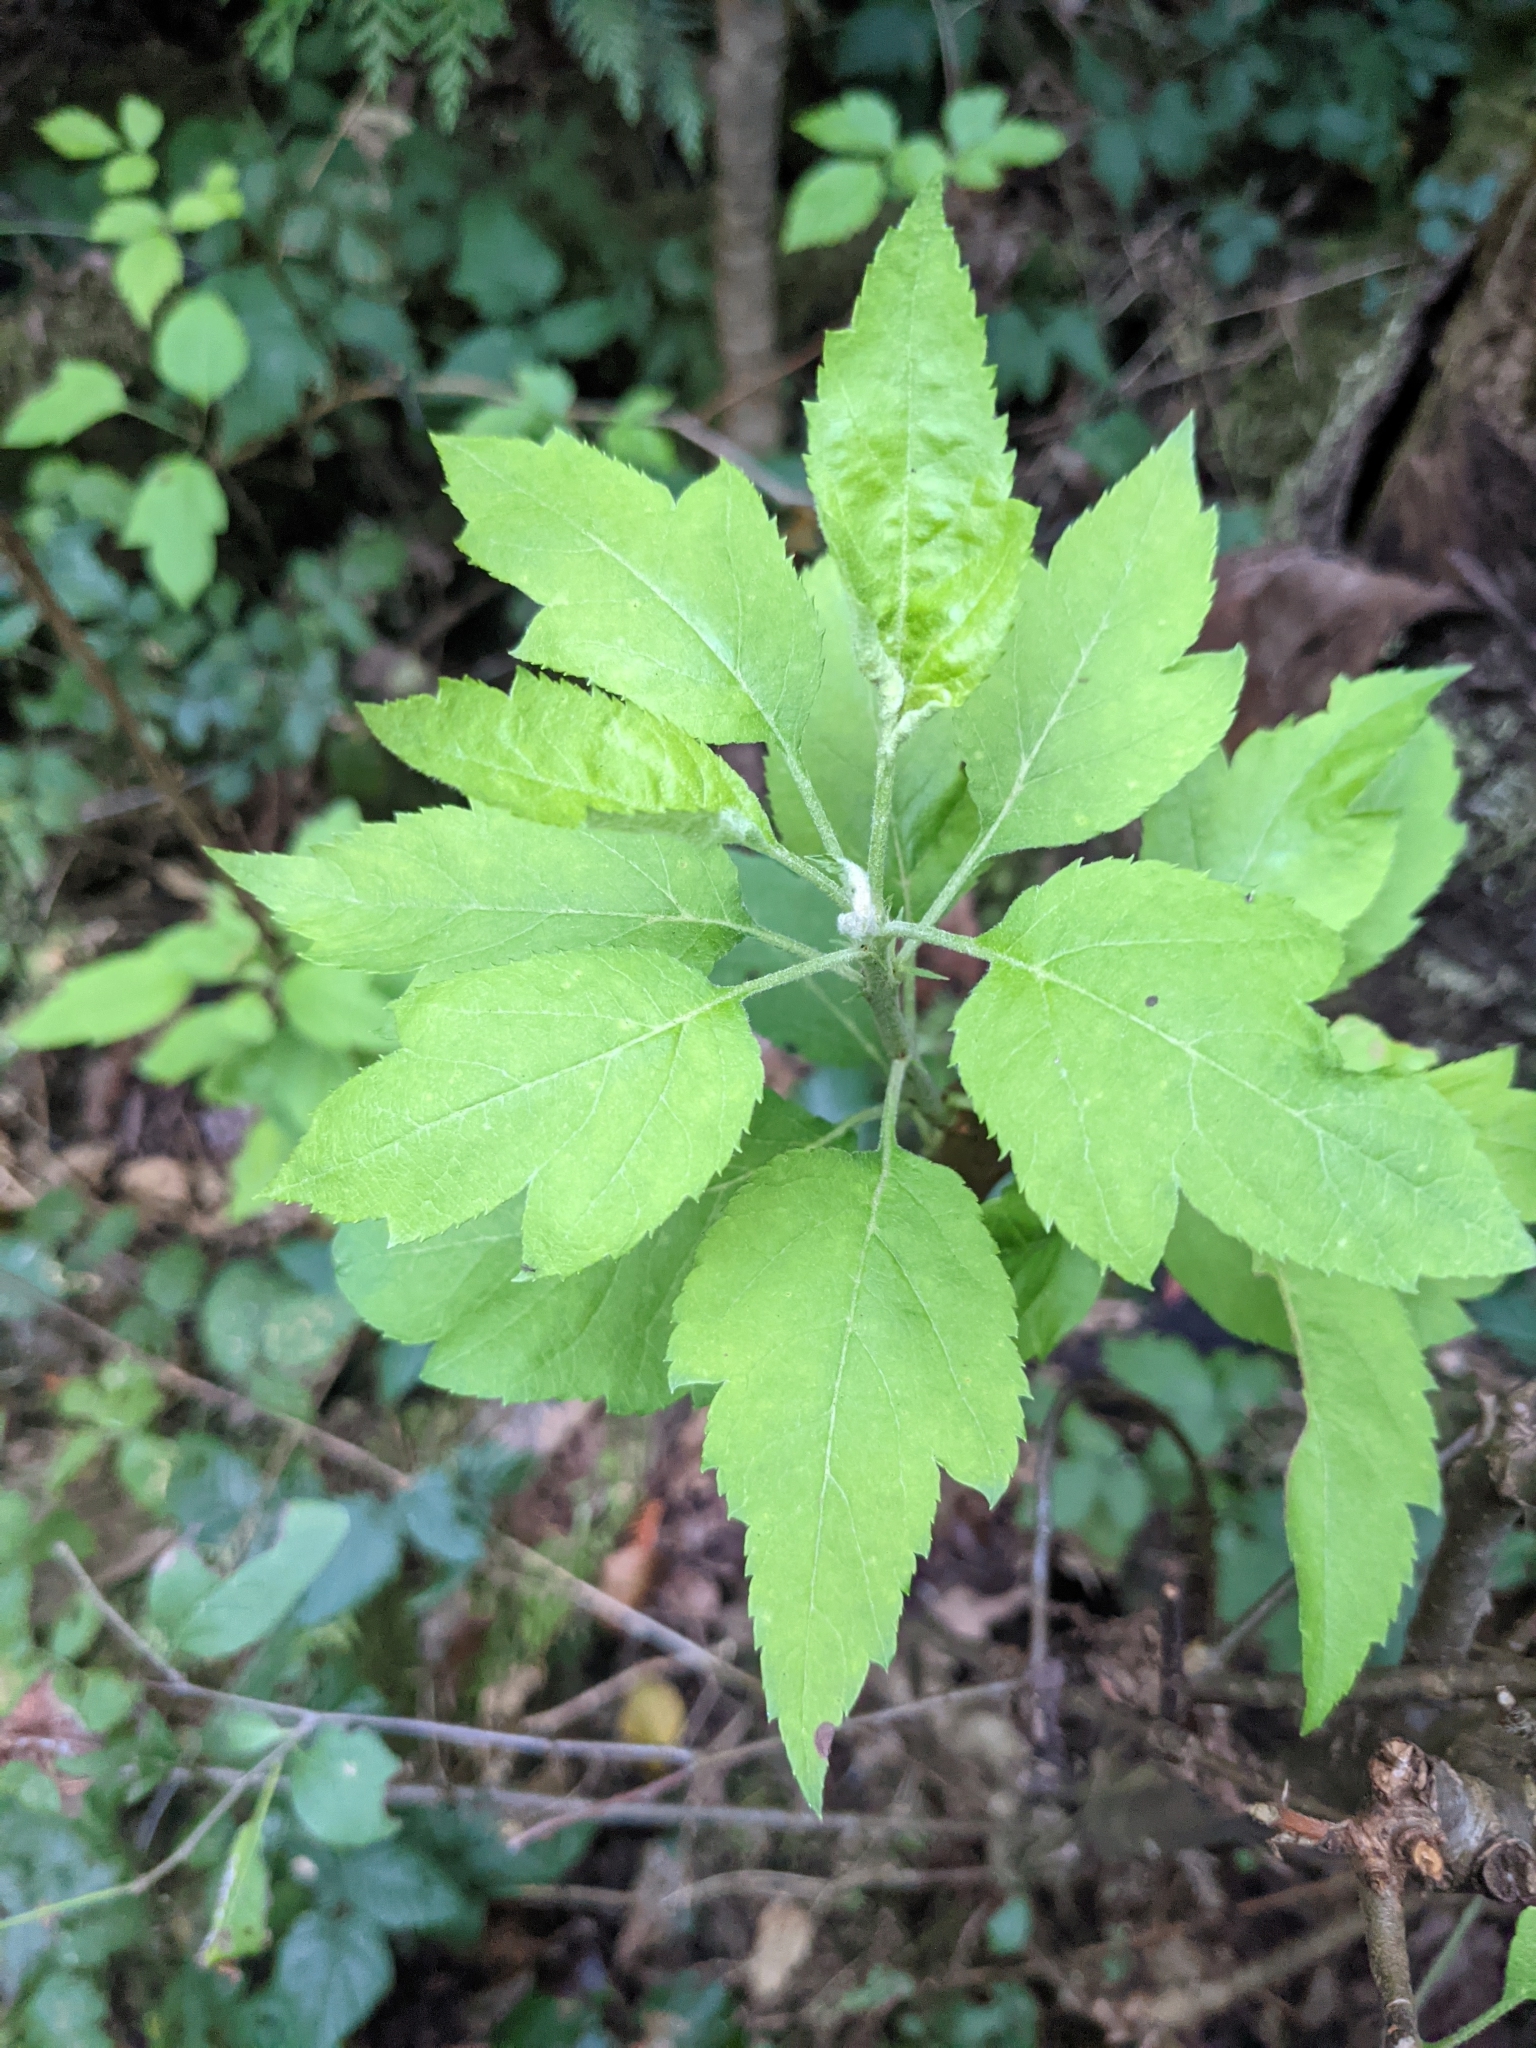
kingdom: Plantae
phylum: Tracheophyta
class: Magnoliopsida
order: Rosales
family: Rosaceae
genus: Malus
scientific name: Malus fusca
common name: Oregon crab apple
